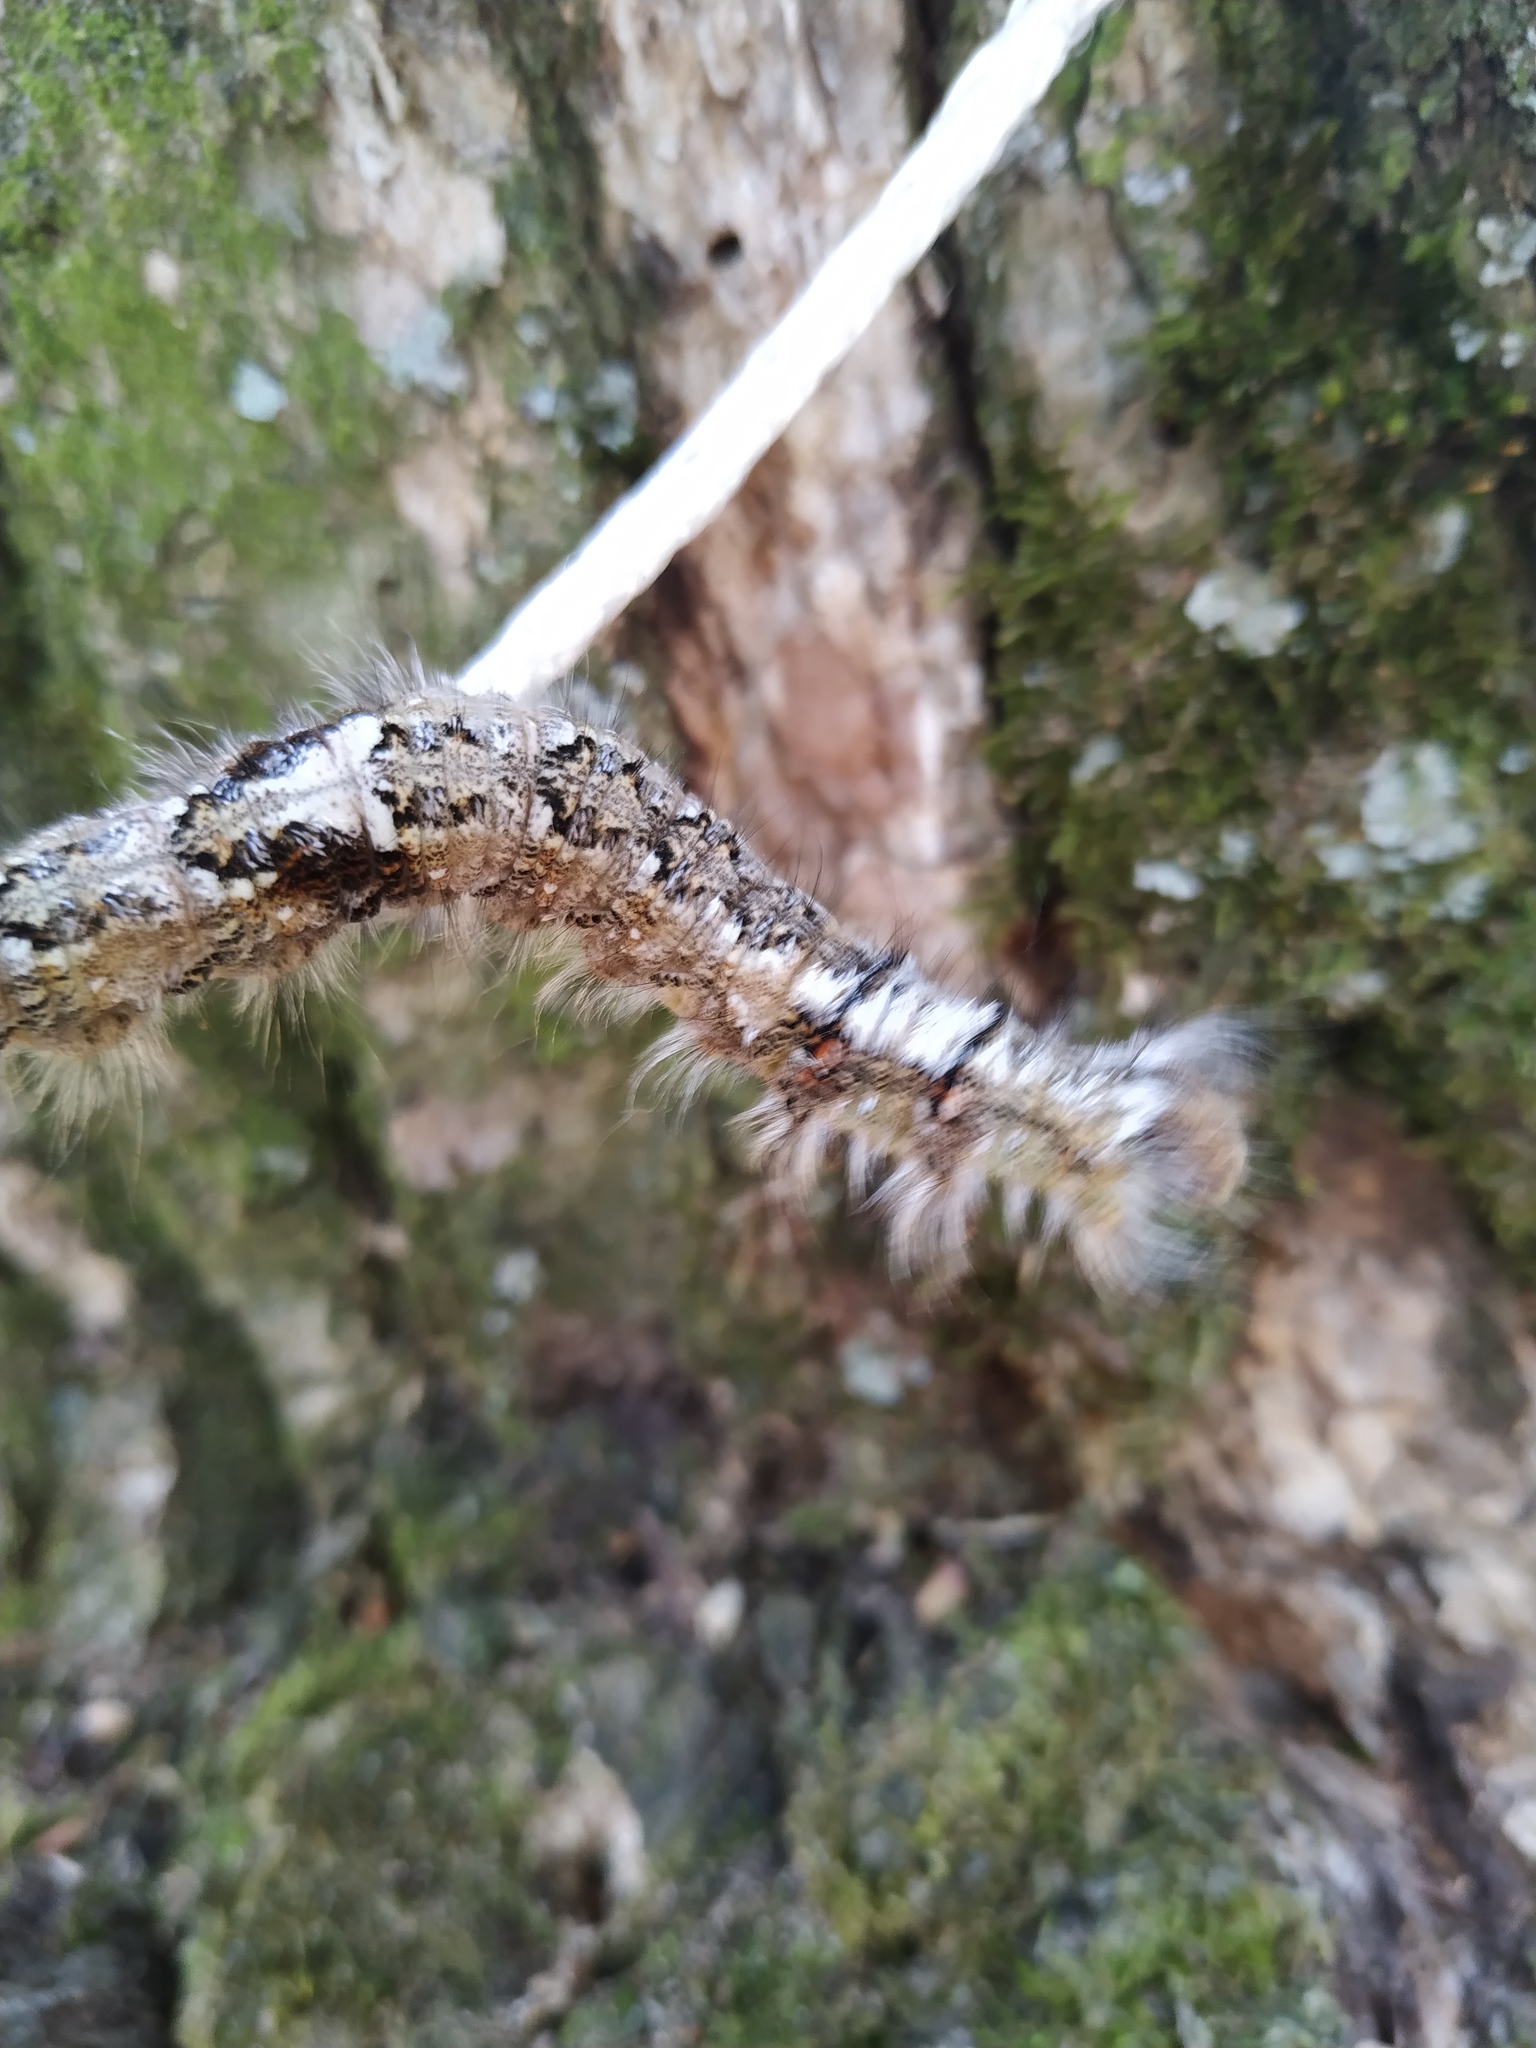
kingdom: Animalia
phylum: Arthropoda
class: Insecta
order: Lepidoptera
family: Lasiocampidae
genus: Dendrolimus
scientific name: Dendrolimus pini
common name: Pine-tree lappet
